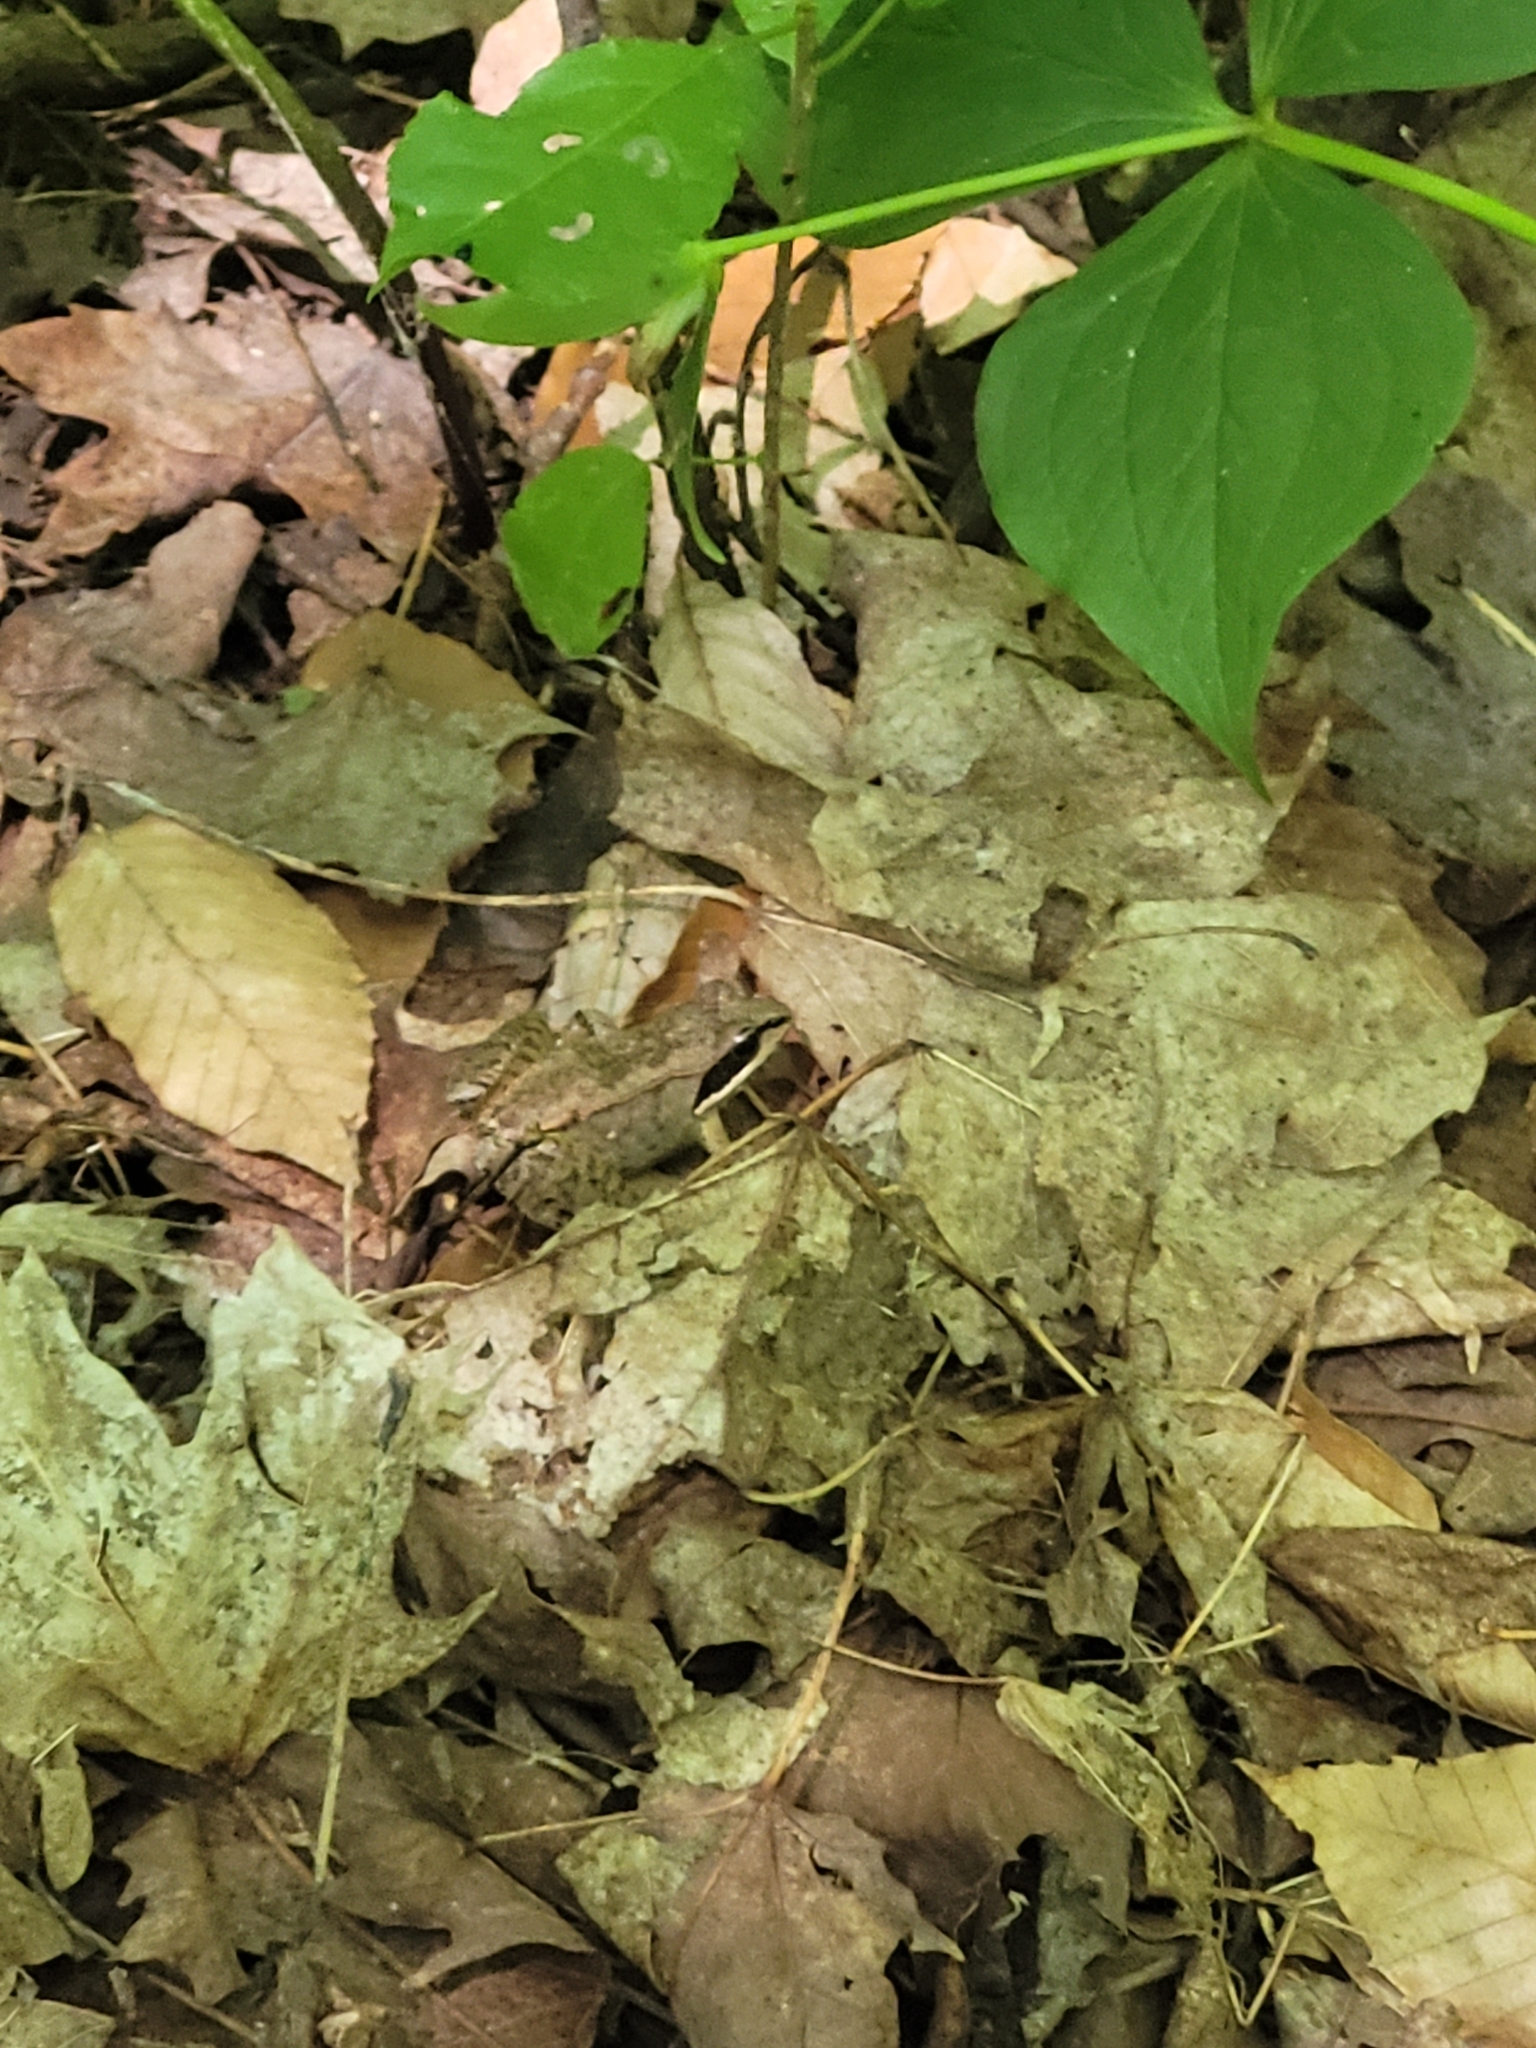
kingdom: Animalia
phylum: Chordata
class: Amphibia
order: Anura
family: Ranidae
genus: Lithobates
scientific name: Lithobates sylvaticus
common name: Wood frog
